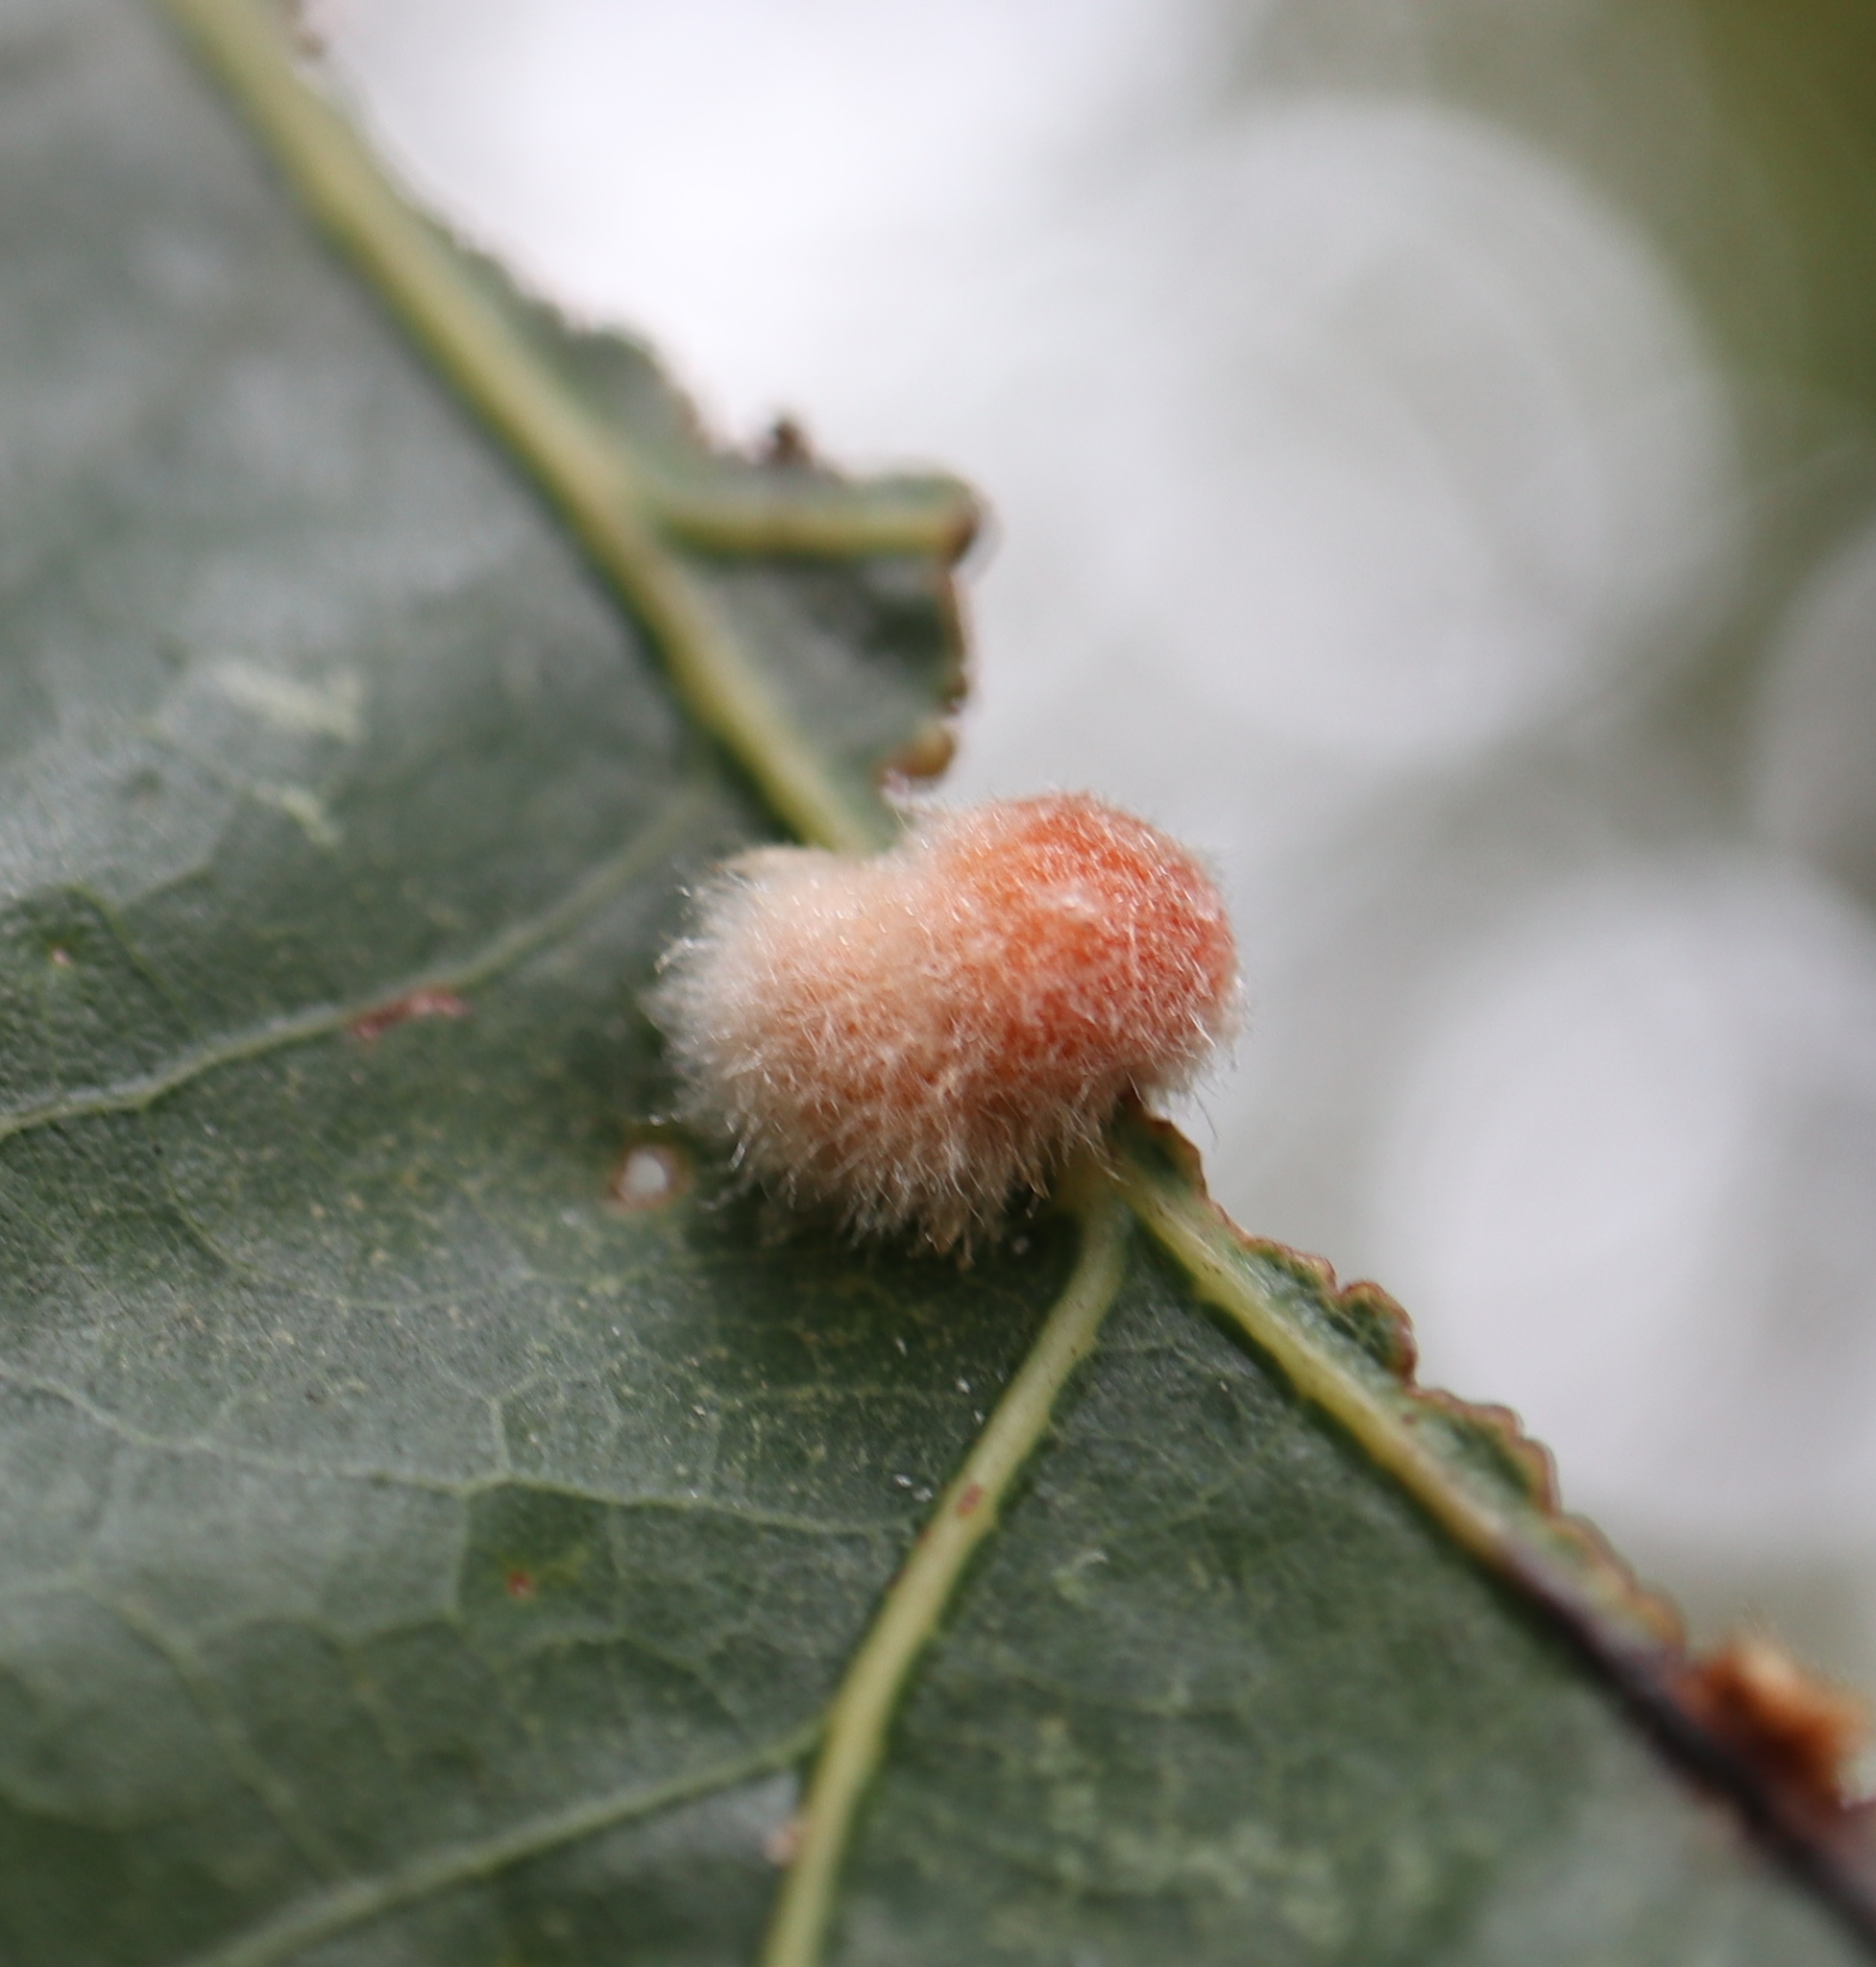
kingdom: Animalia
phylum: Arthropoda
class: Insecta
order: Hymenoptera
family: Cynipidae
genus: Andricus
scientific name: Andricus quercusflocci
